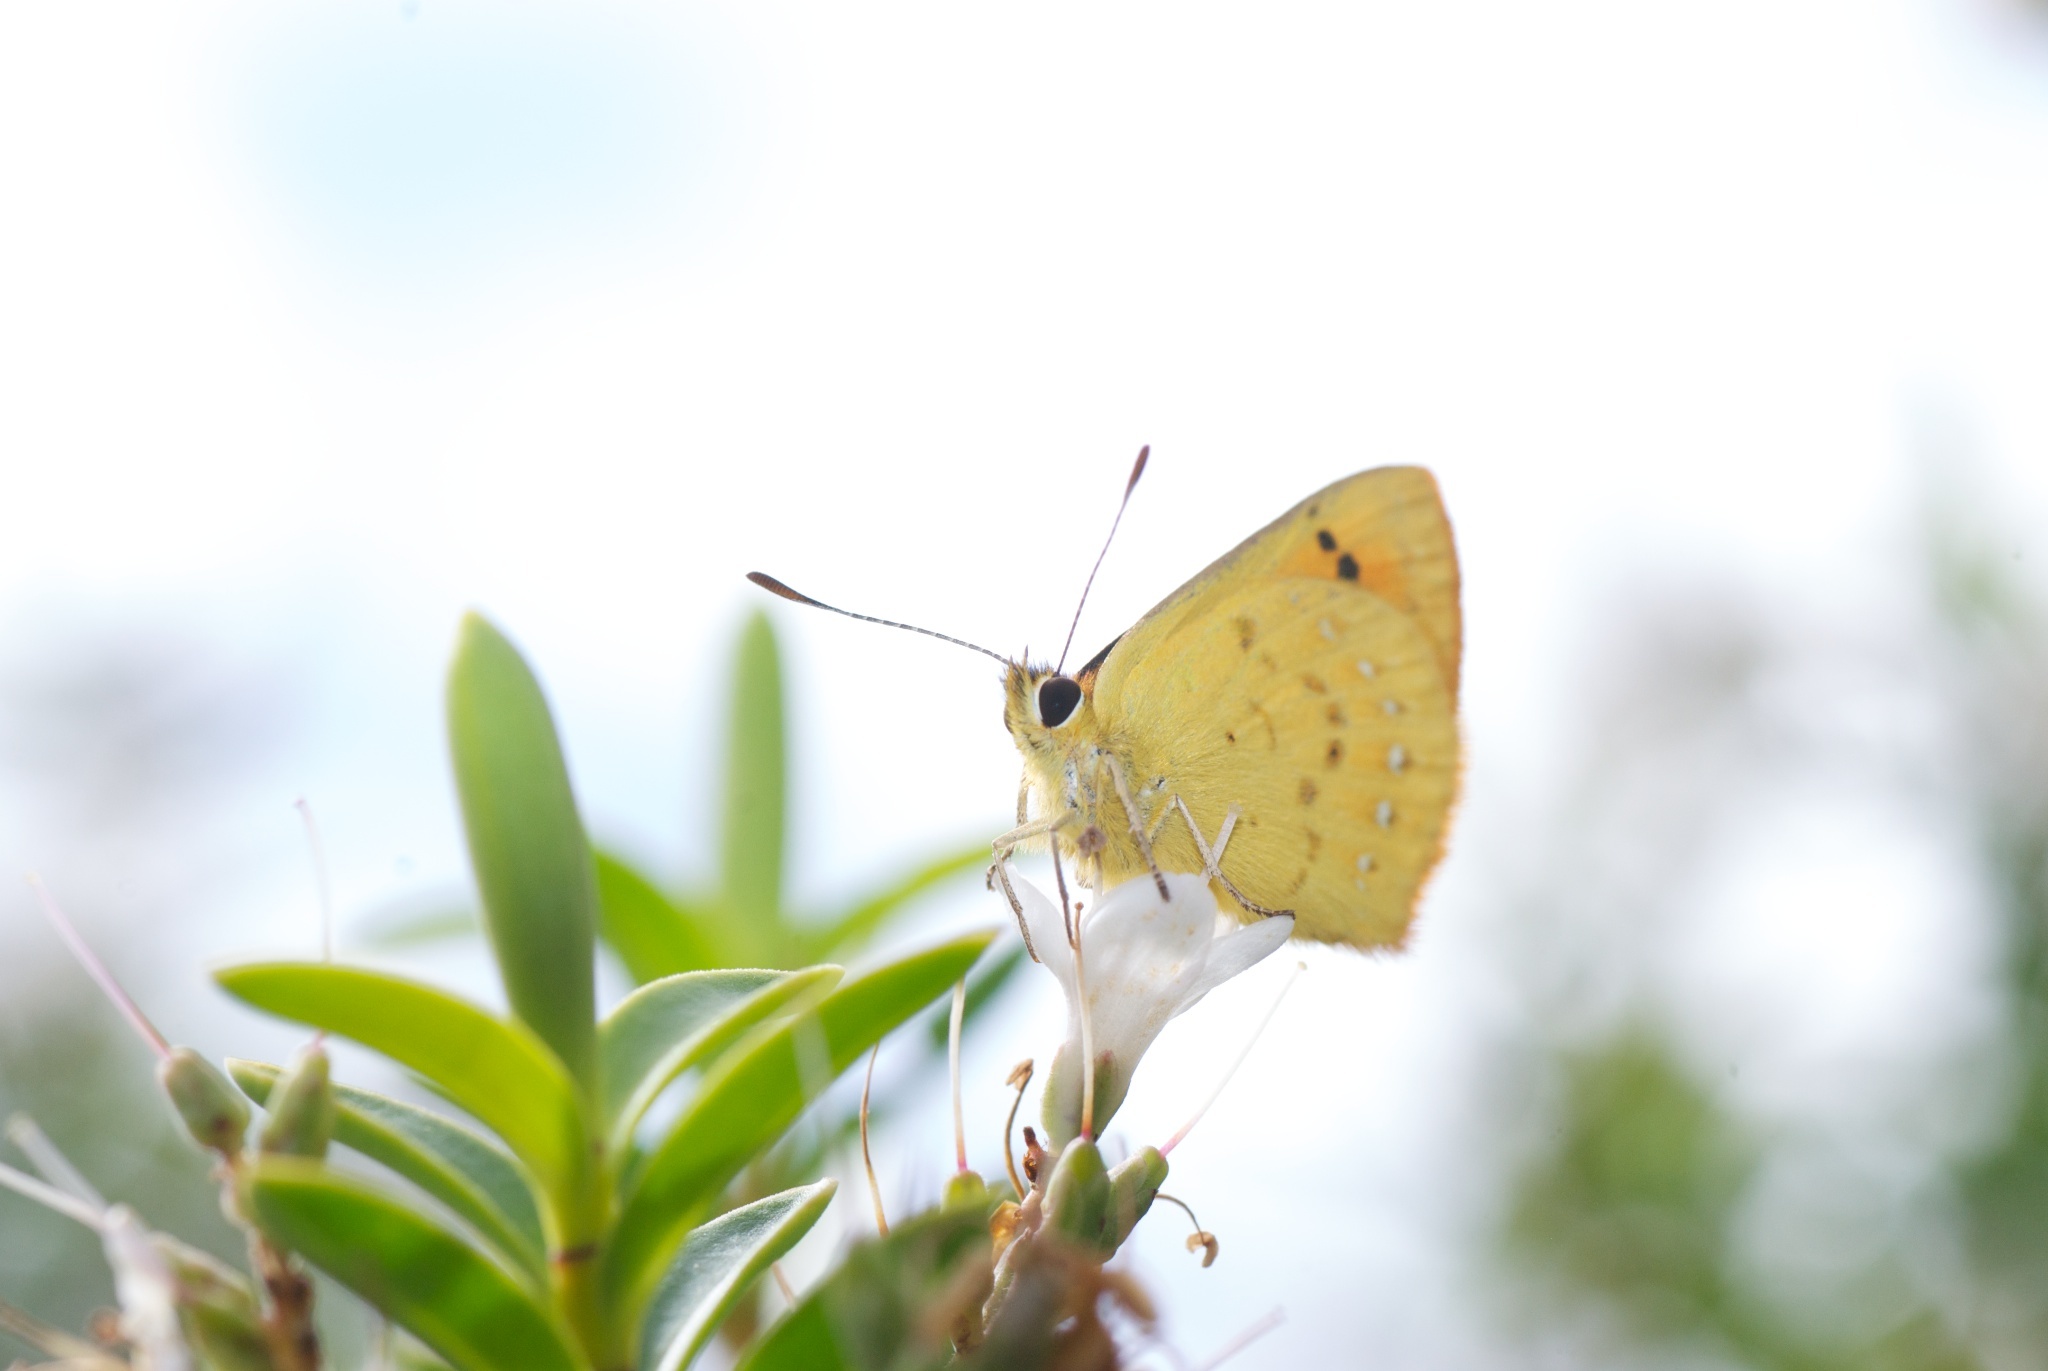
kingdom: Animalia
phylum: Arthropoda
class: Insecta
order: Lepidoptera
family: Lycaenidae
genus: Lycaena
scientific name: Lycaena salustius
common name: North island coastal copper
